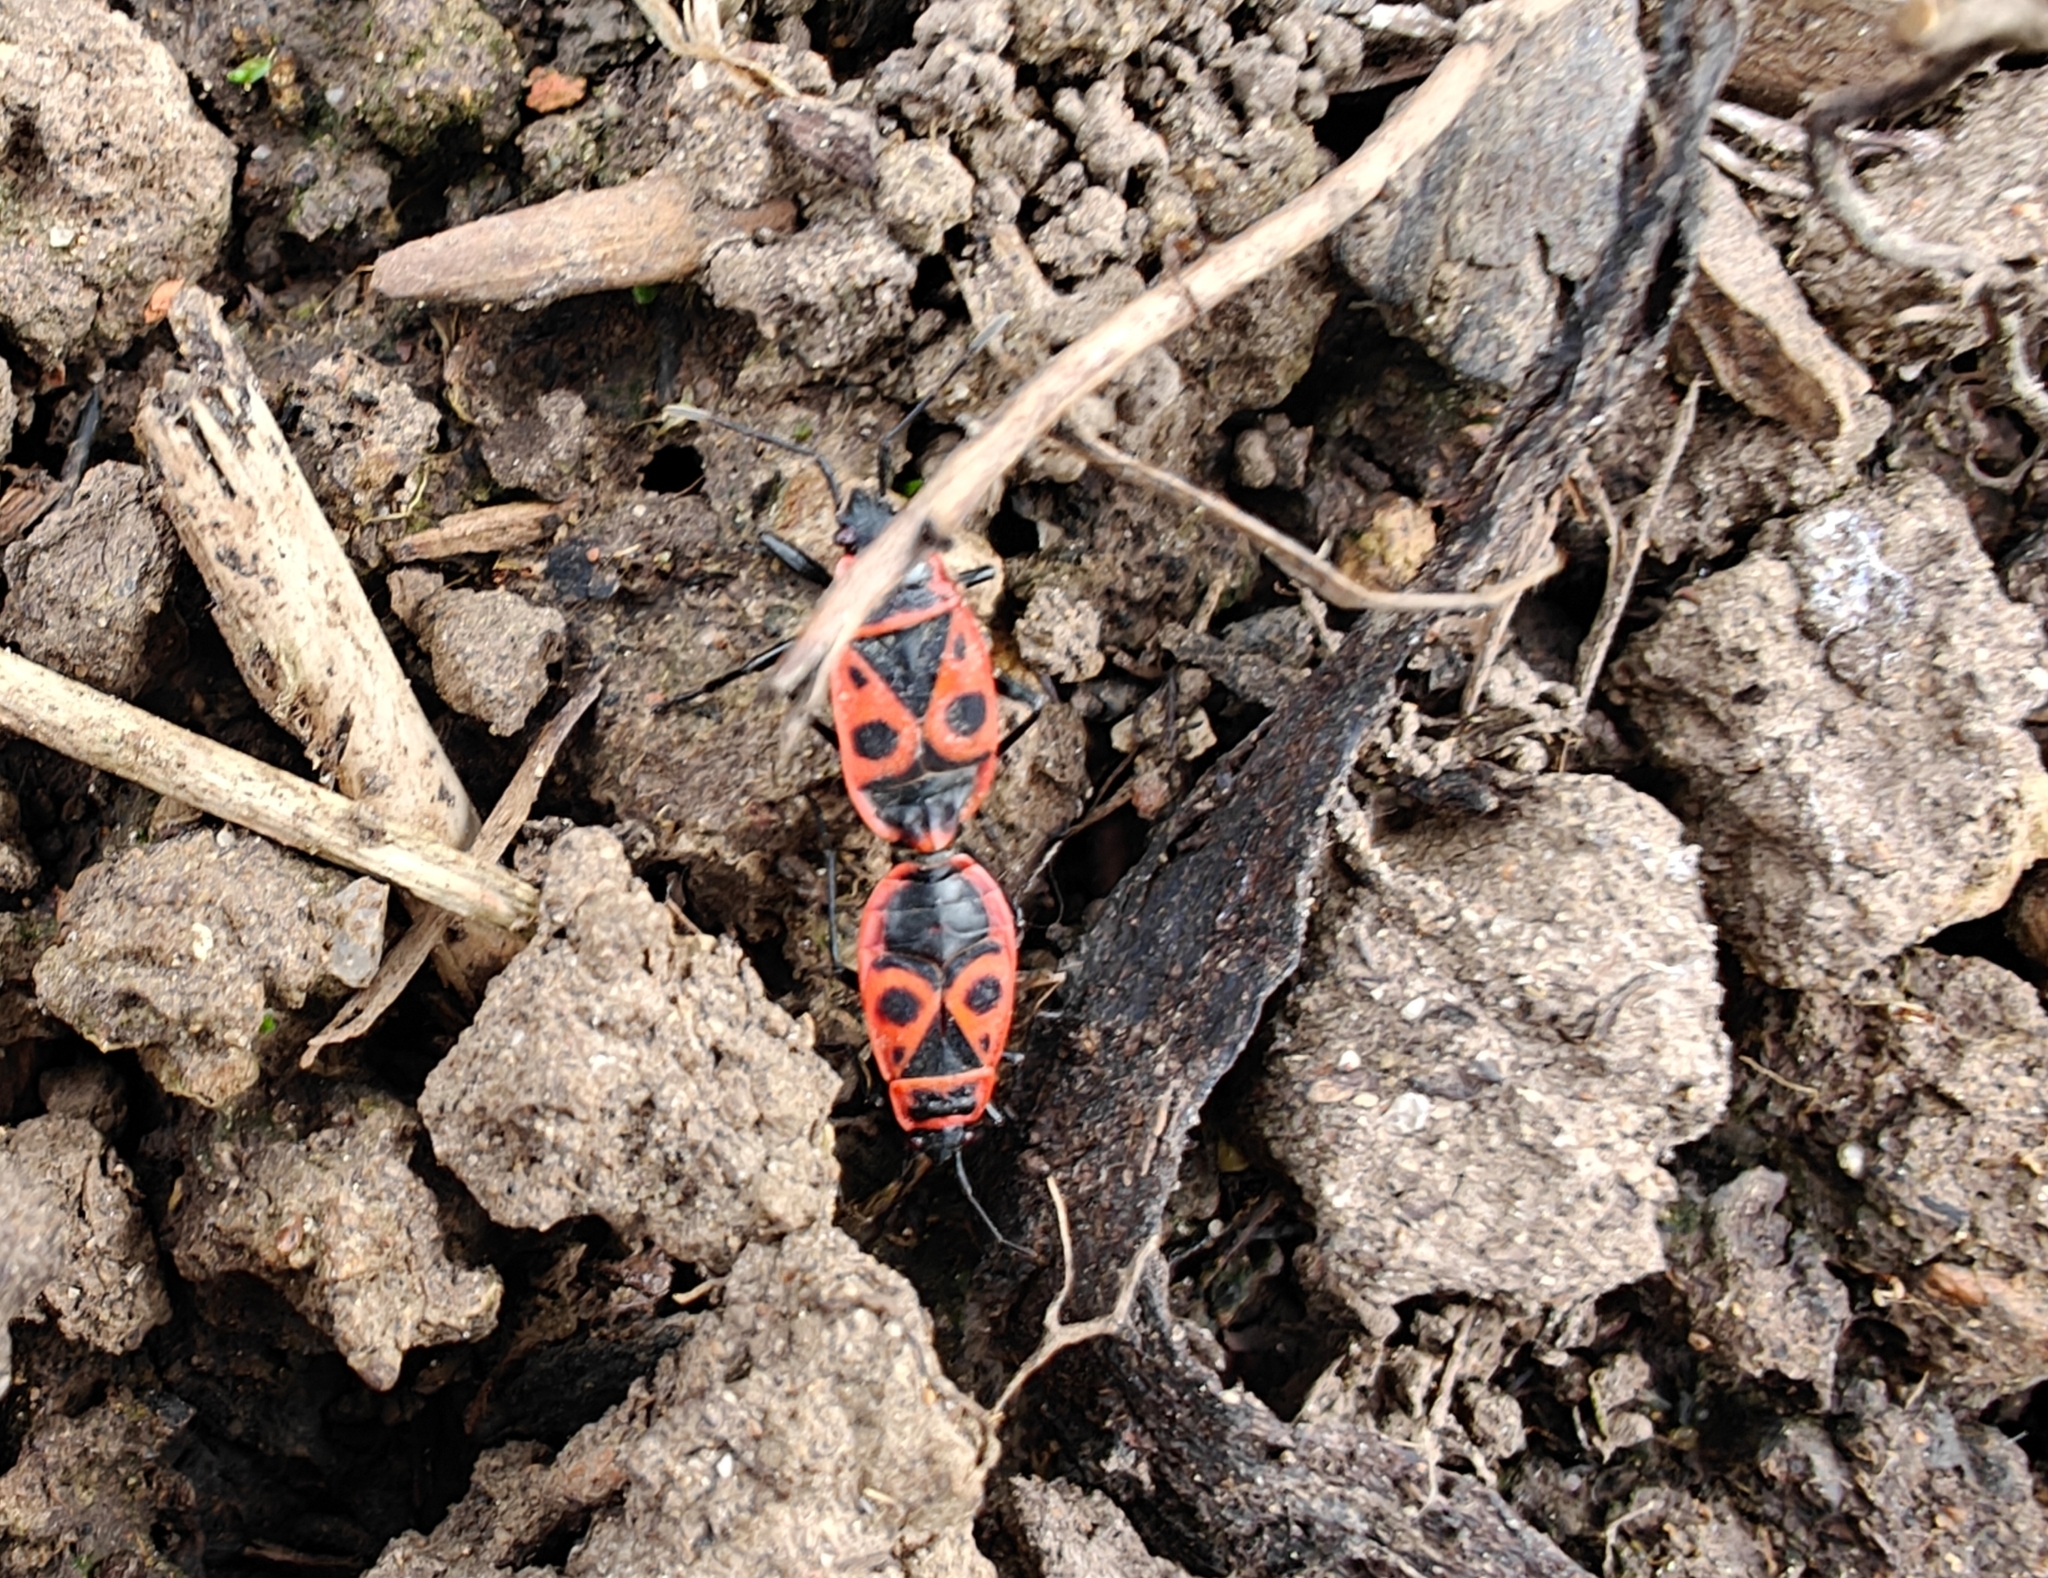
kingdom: Animalia
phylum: Arthropoda
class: Insecta
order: Hemiptera
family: Pyrrhocoridae
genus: Pyrrhocoris
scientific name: Pyrrhocoris apterus
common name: Firebug
